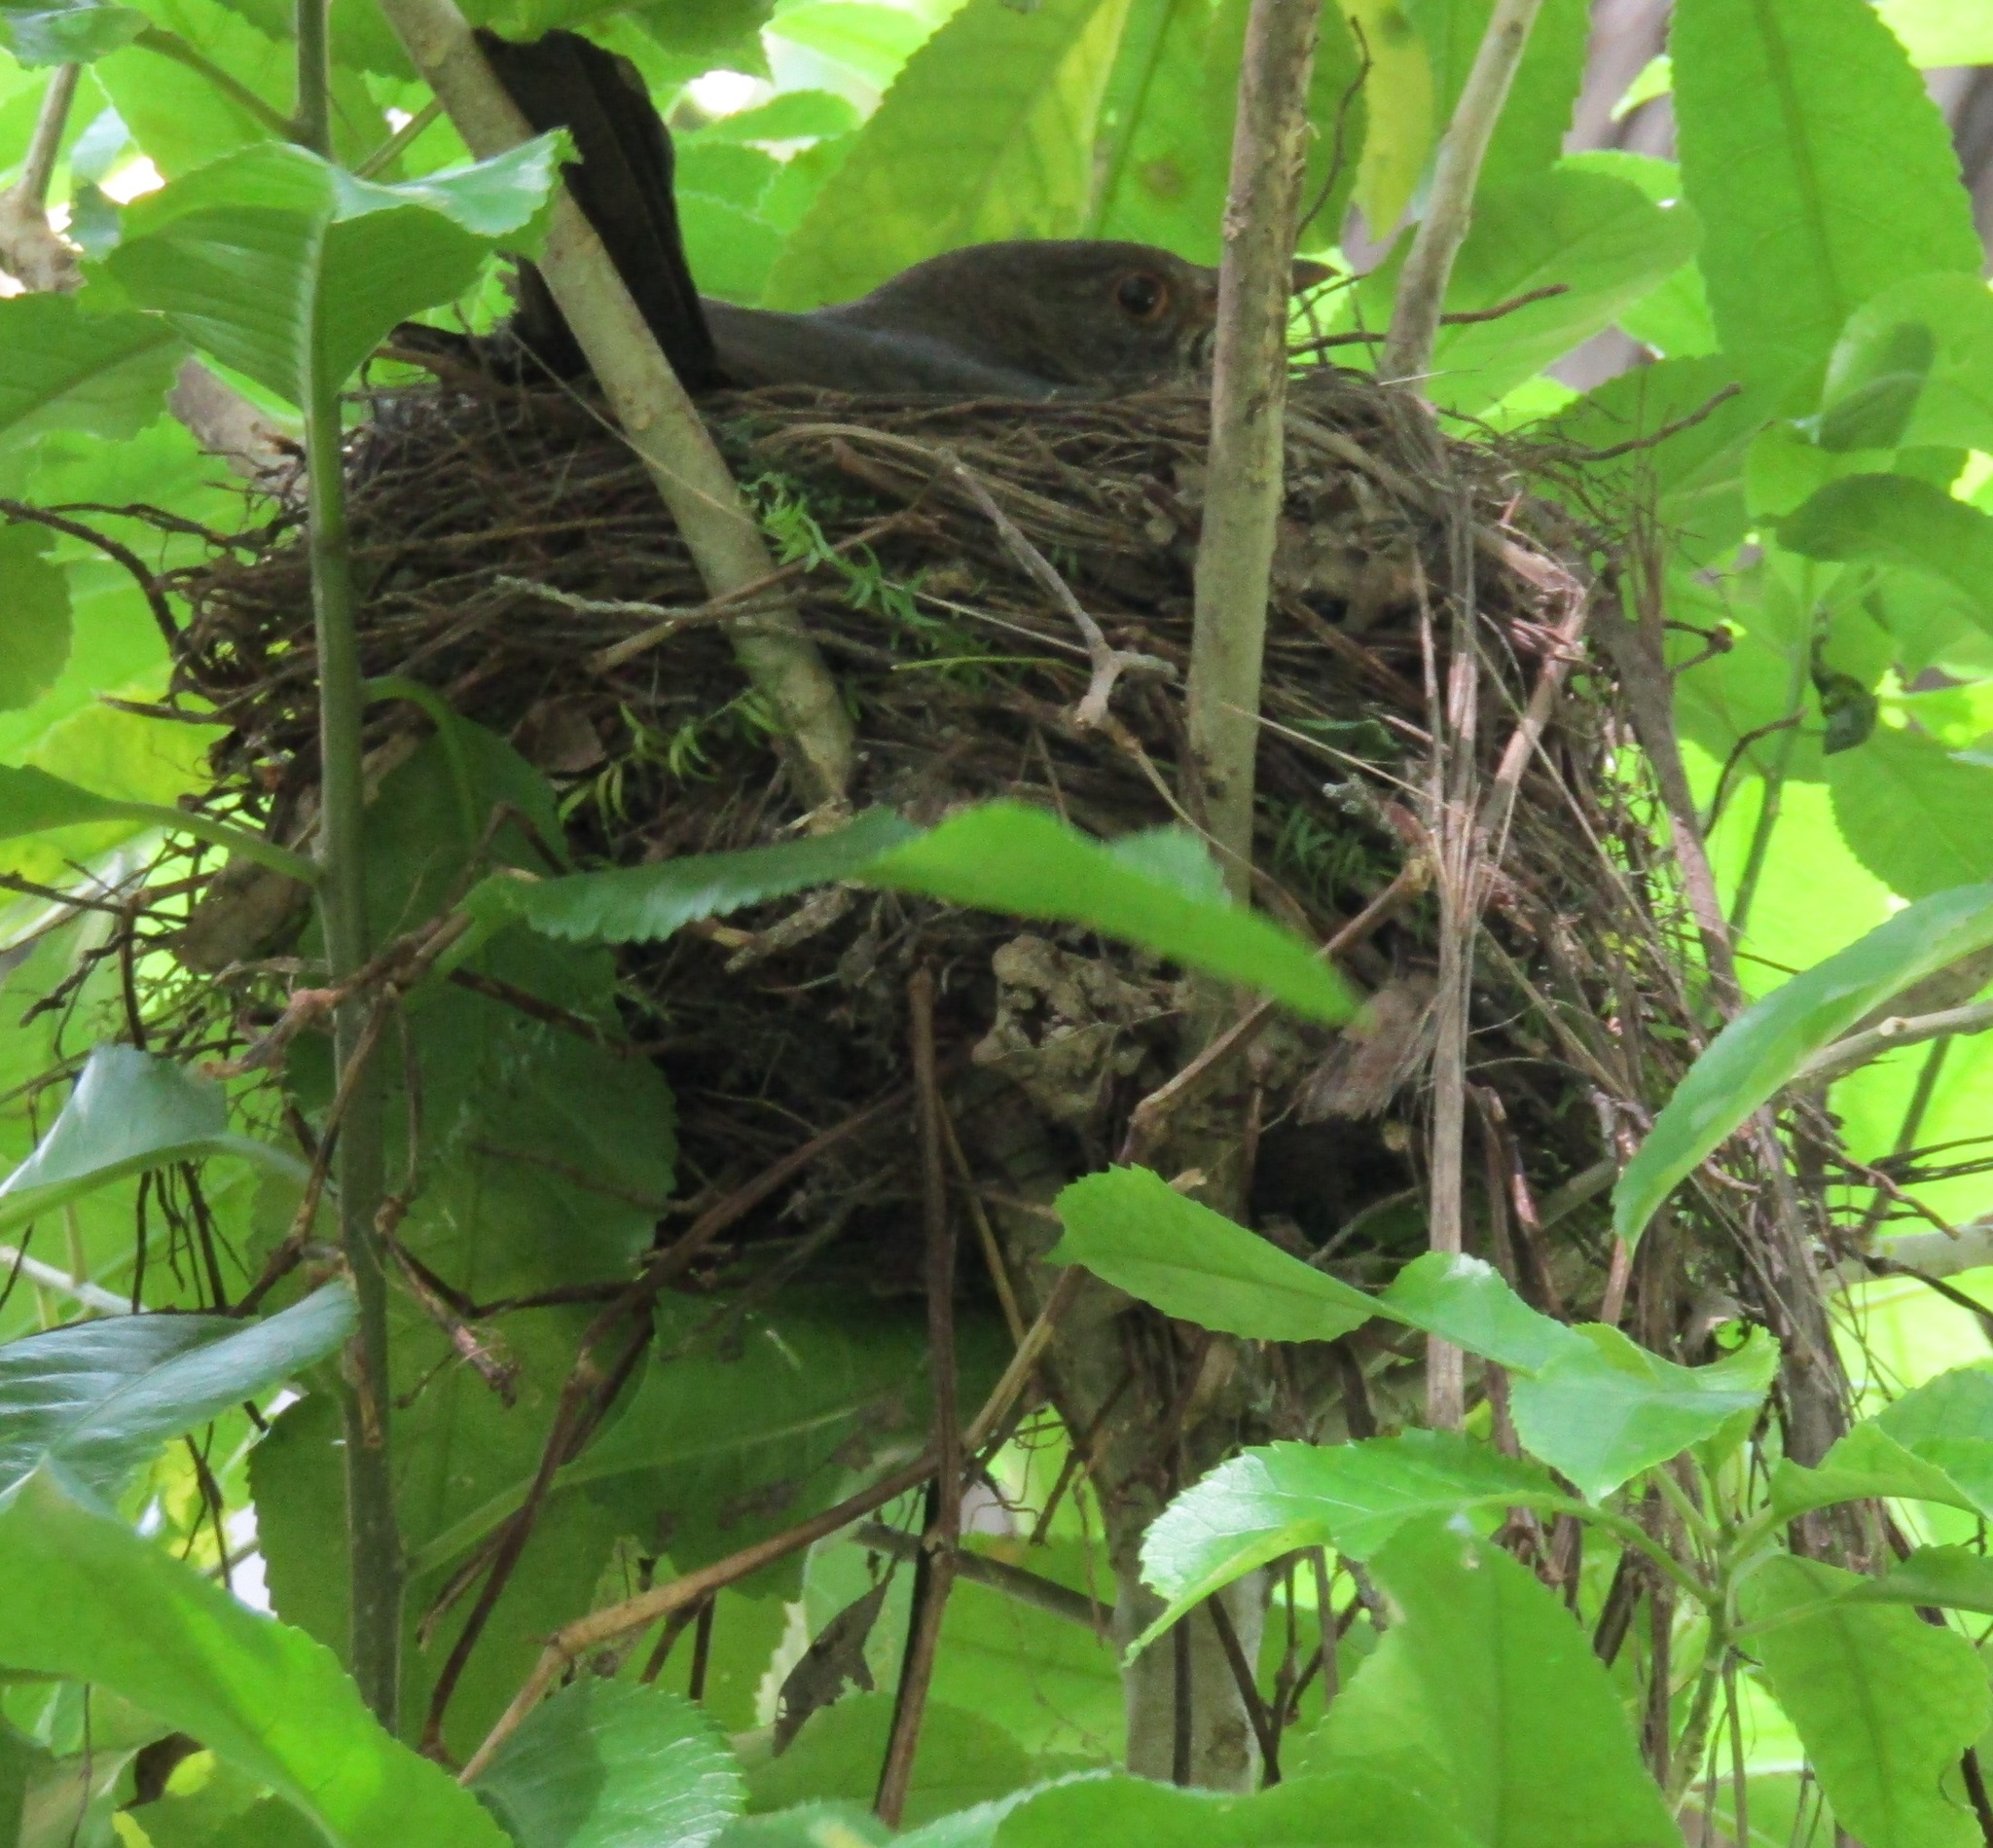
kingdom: Animalia
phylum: Chordata
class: Aves
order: Passeriformes
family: Turdidae
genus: Turdus
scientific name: Turdus merula
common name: Common blackbird
